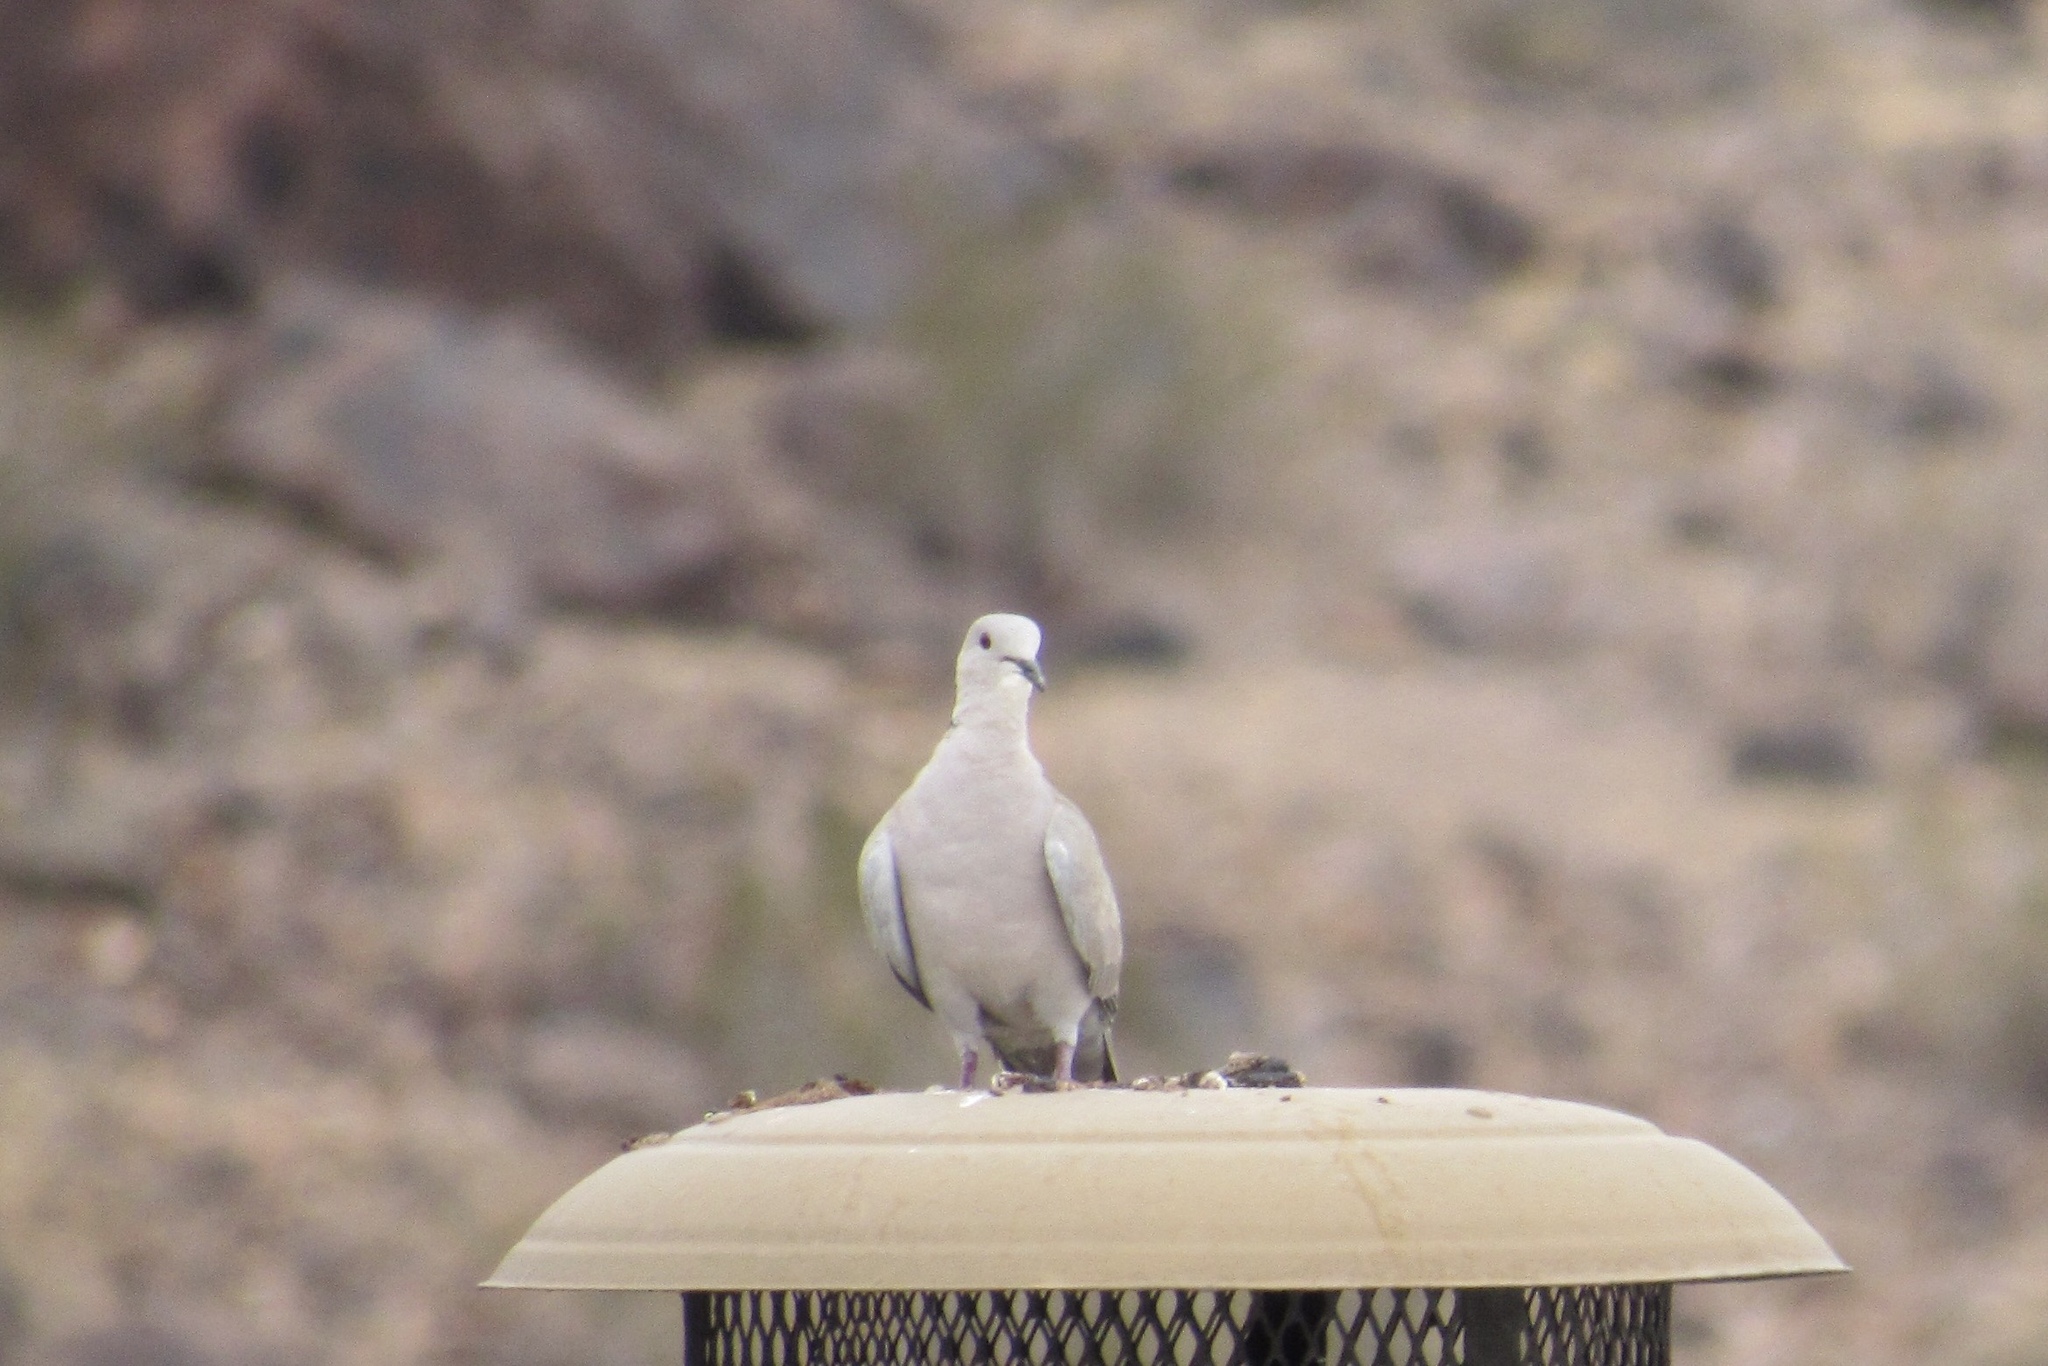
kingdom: Animalia
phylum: Chordata
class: Aves
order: Columbiformes
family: Columbidae
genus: Streptopelia
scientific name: Streptopelia decaocto
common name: Eurasian collared dove
